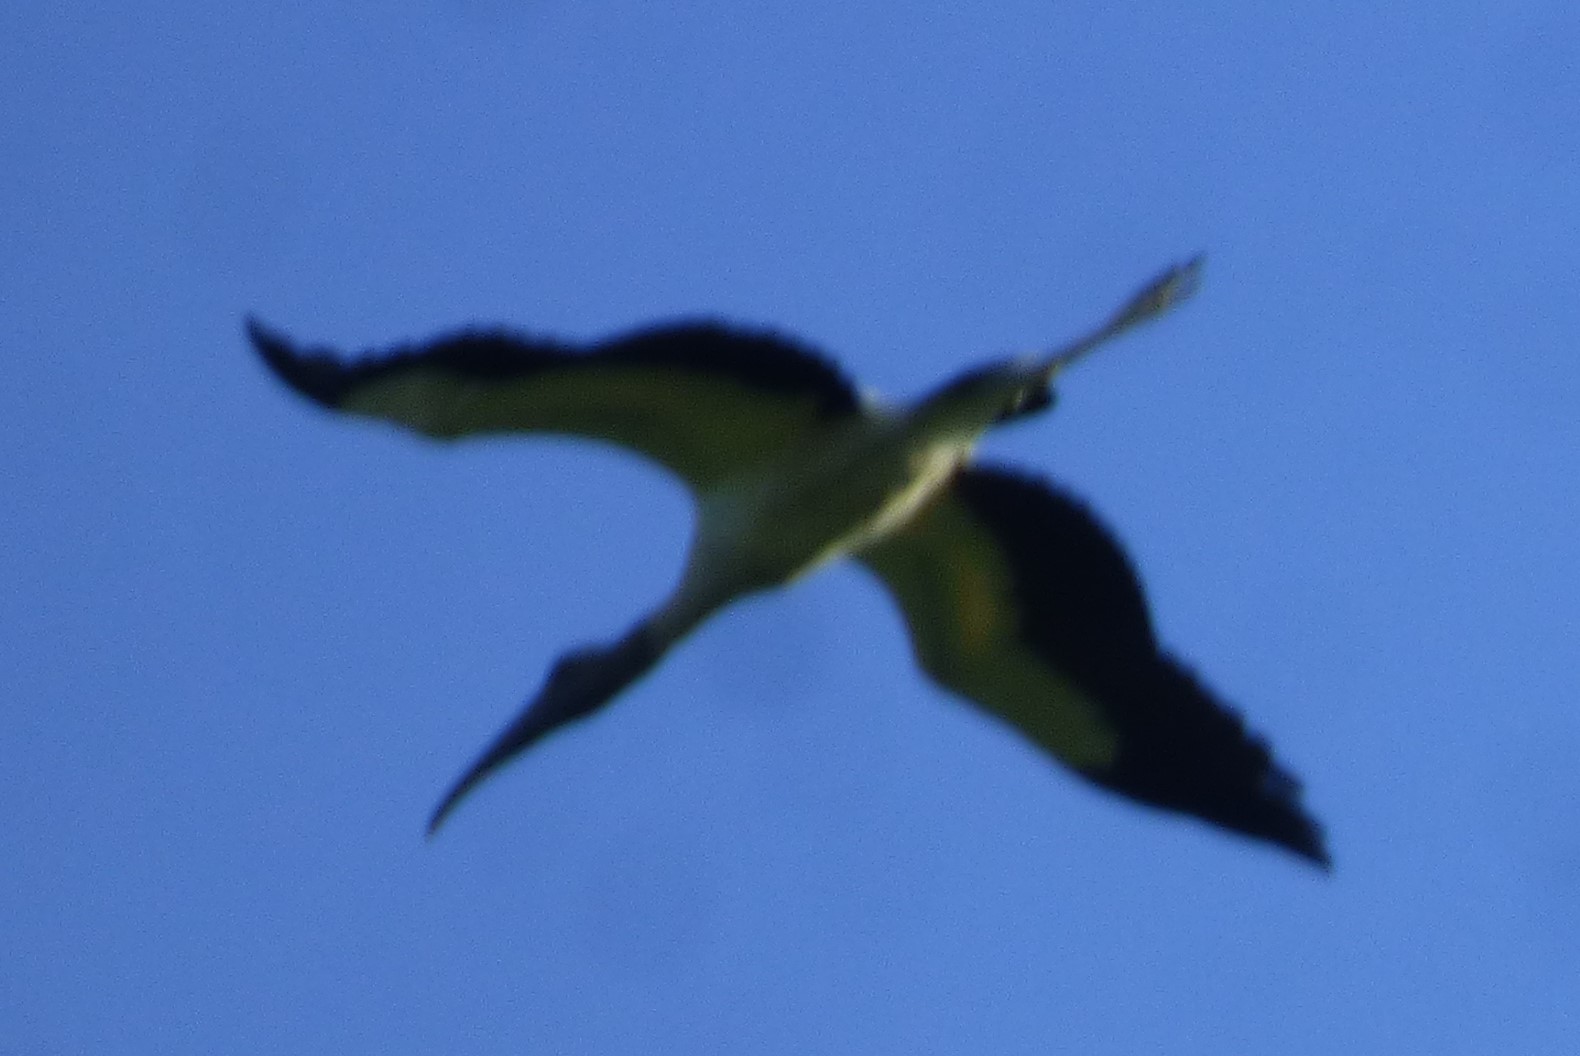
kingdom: Animalia
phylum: Chordata
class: Aves
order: Ciconiiformes
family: Ciconiidae
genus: Mycteria
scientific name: Mycteria americana
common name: Wood stork
